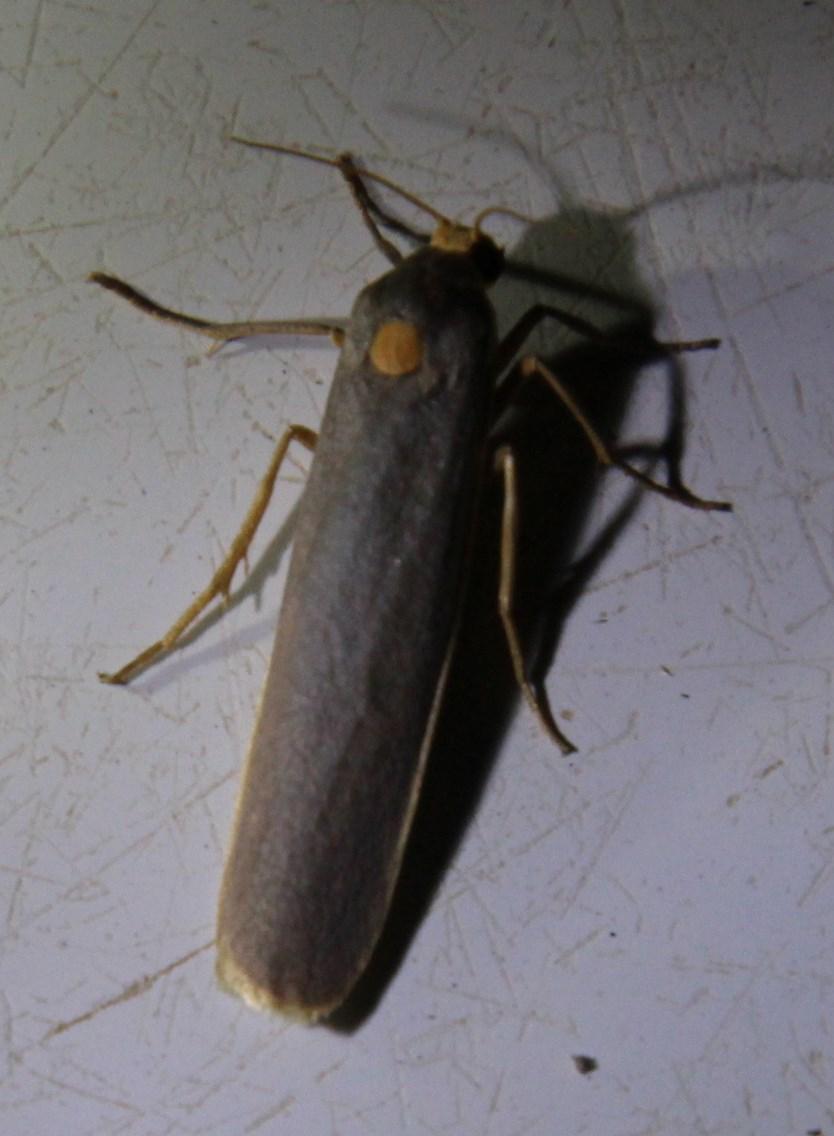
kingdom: Animalia
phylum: Arthropoda
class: Insecta
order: Lepidoptera
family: Erebidae
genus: Birketsmithiola
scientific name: Birketsmithiola sanguicosta
